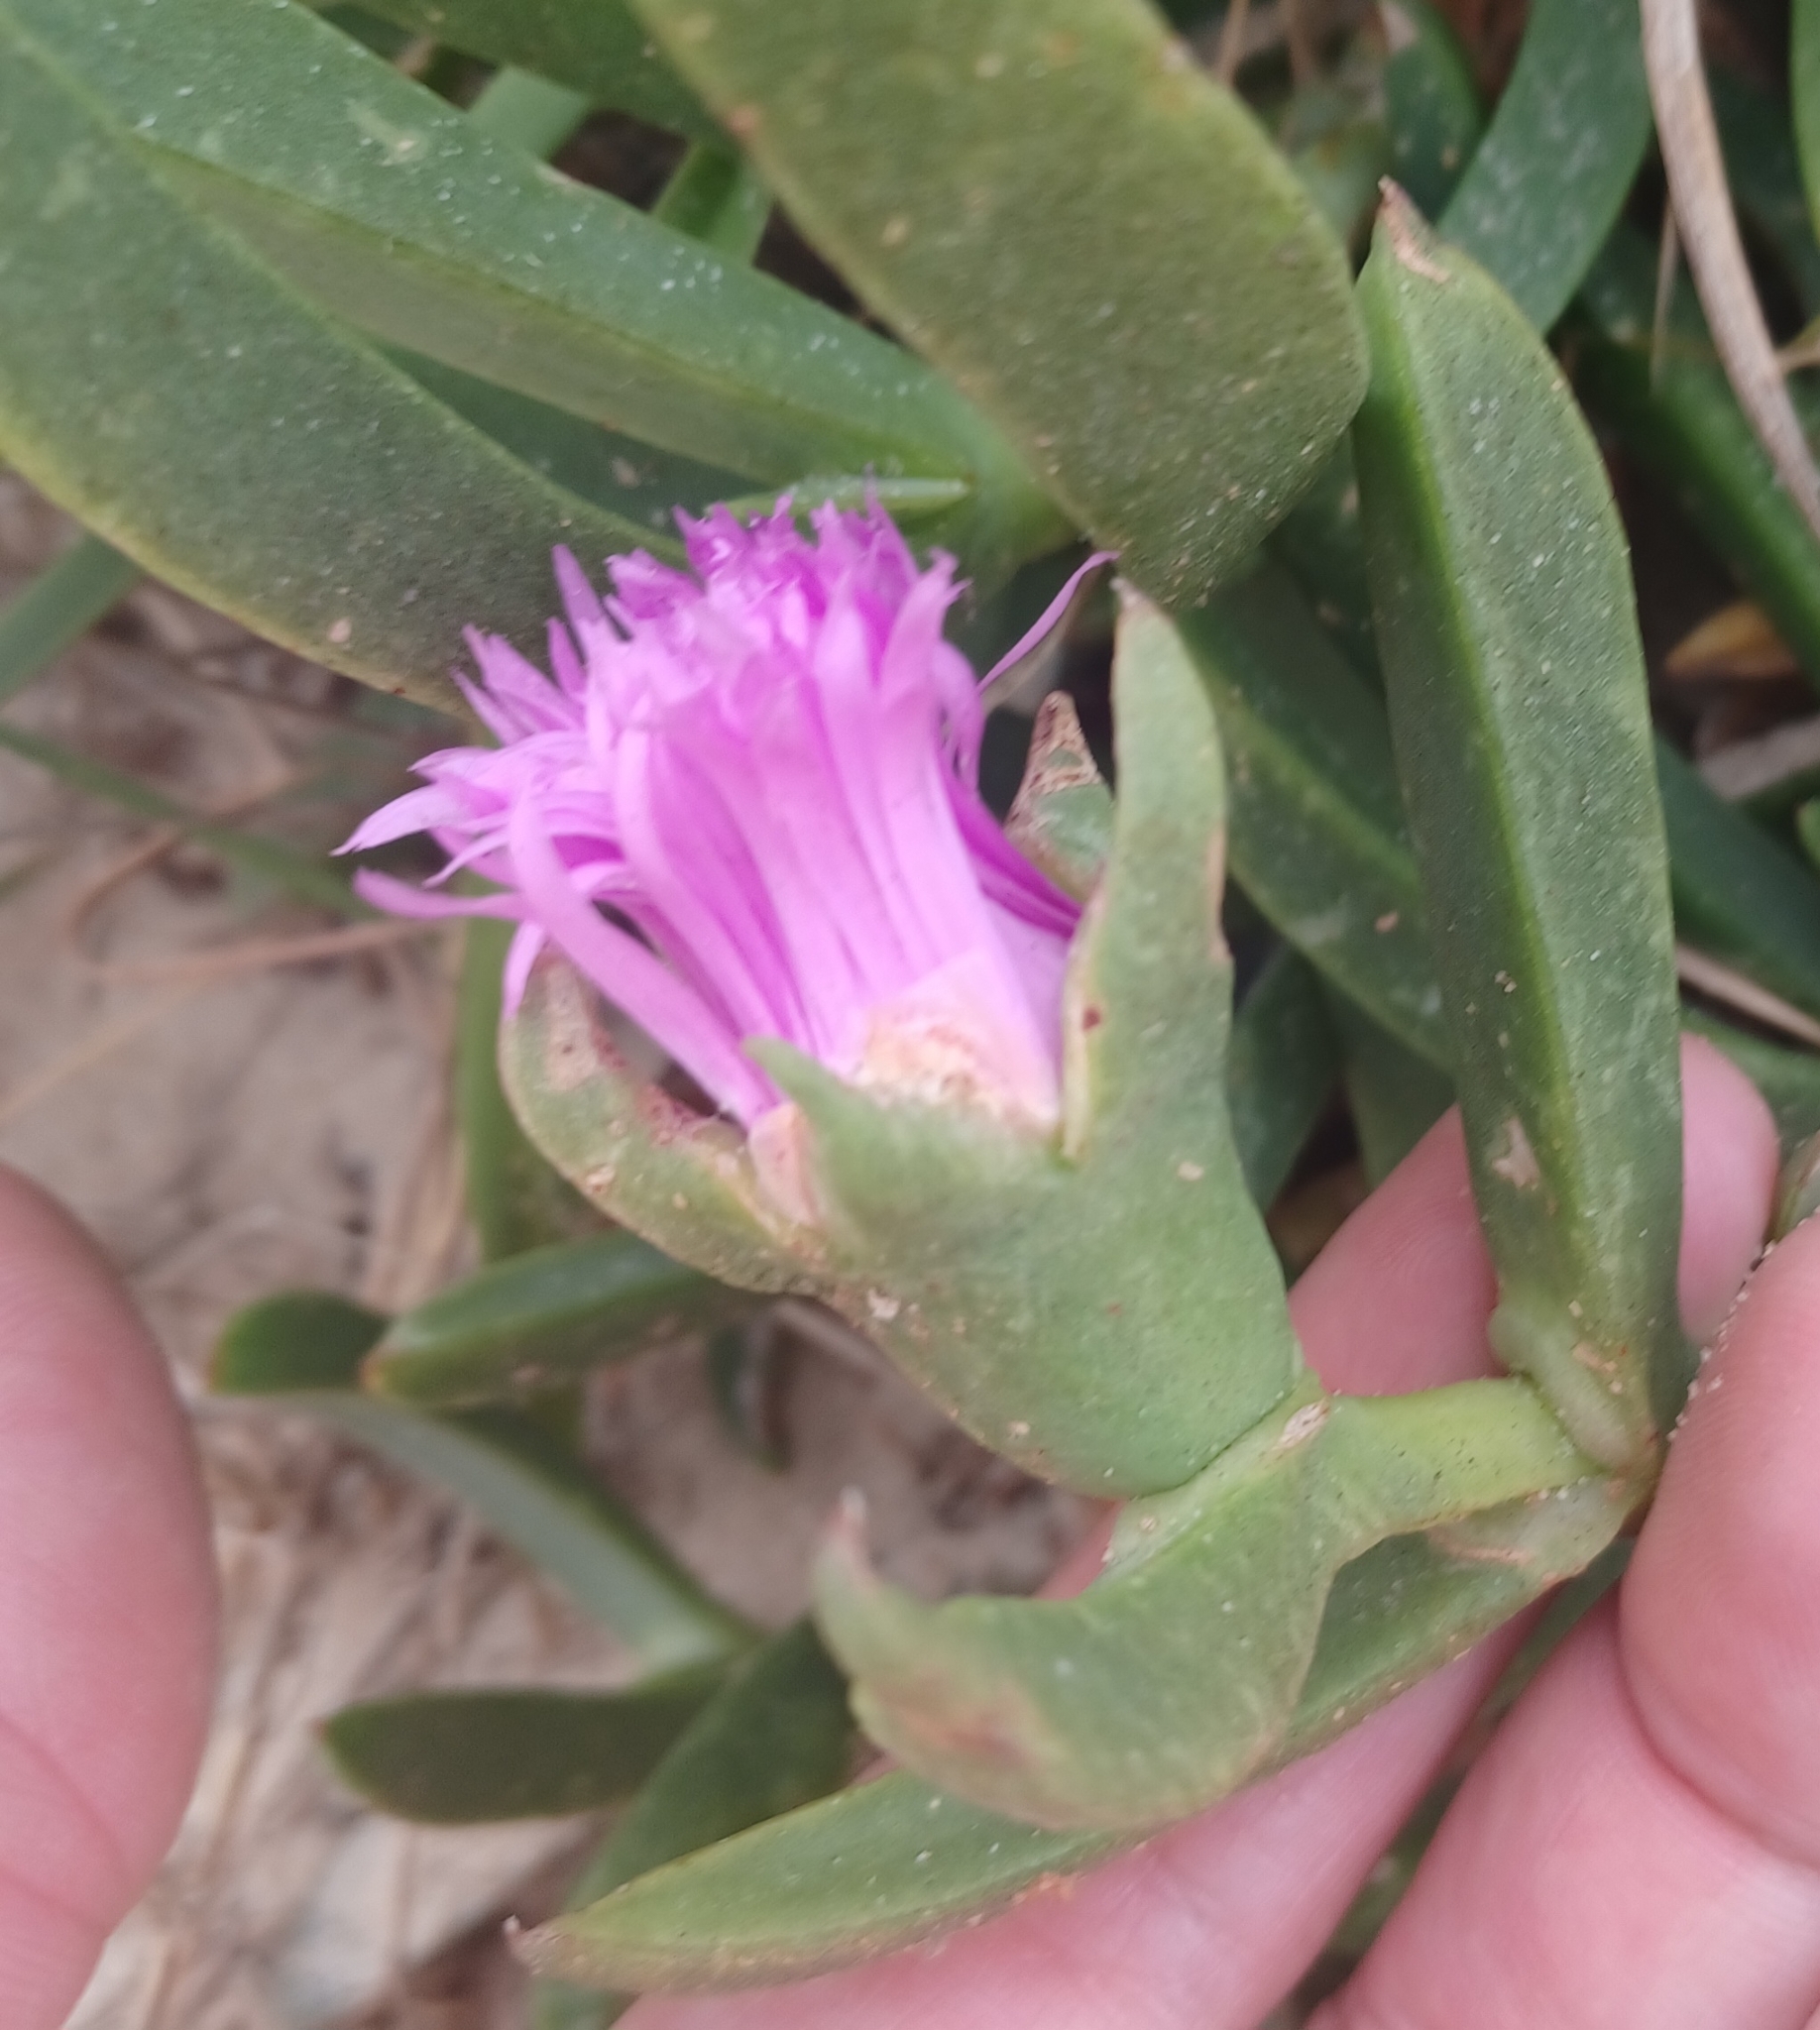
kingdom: Plantae
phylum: Tracheophyta
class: Magnoliopsida
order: Caryophyllales
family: Aizoaceae
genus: Carpobrotus
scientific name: Carpobrotus glaucescens
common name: Angular sea-fig
